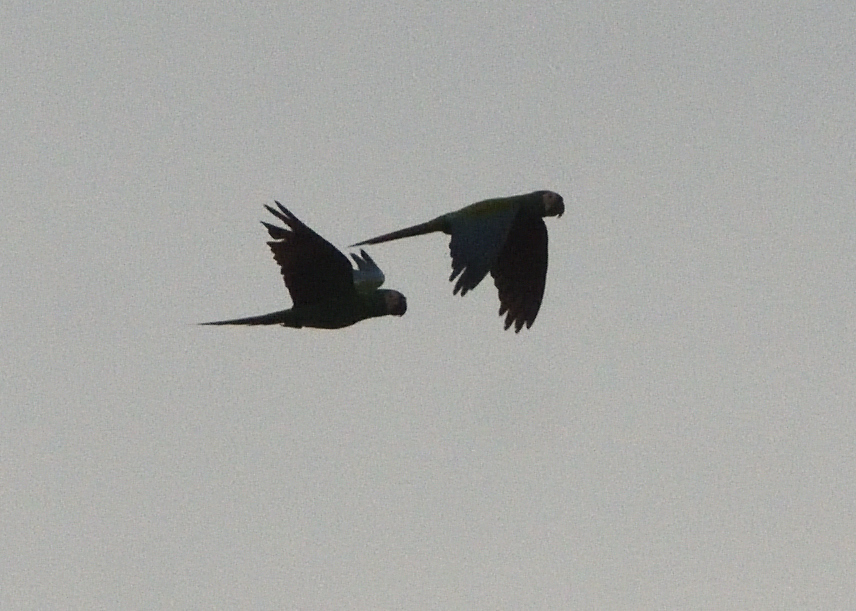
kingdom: Animalia
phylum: Chordata
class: Aves
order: Psittaciformes
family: Psittacidae
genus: Ara
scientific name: Ara severus
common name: Chestnut-fronted macaw
